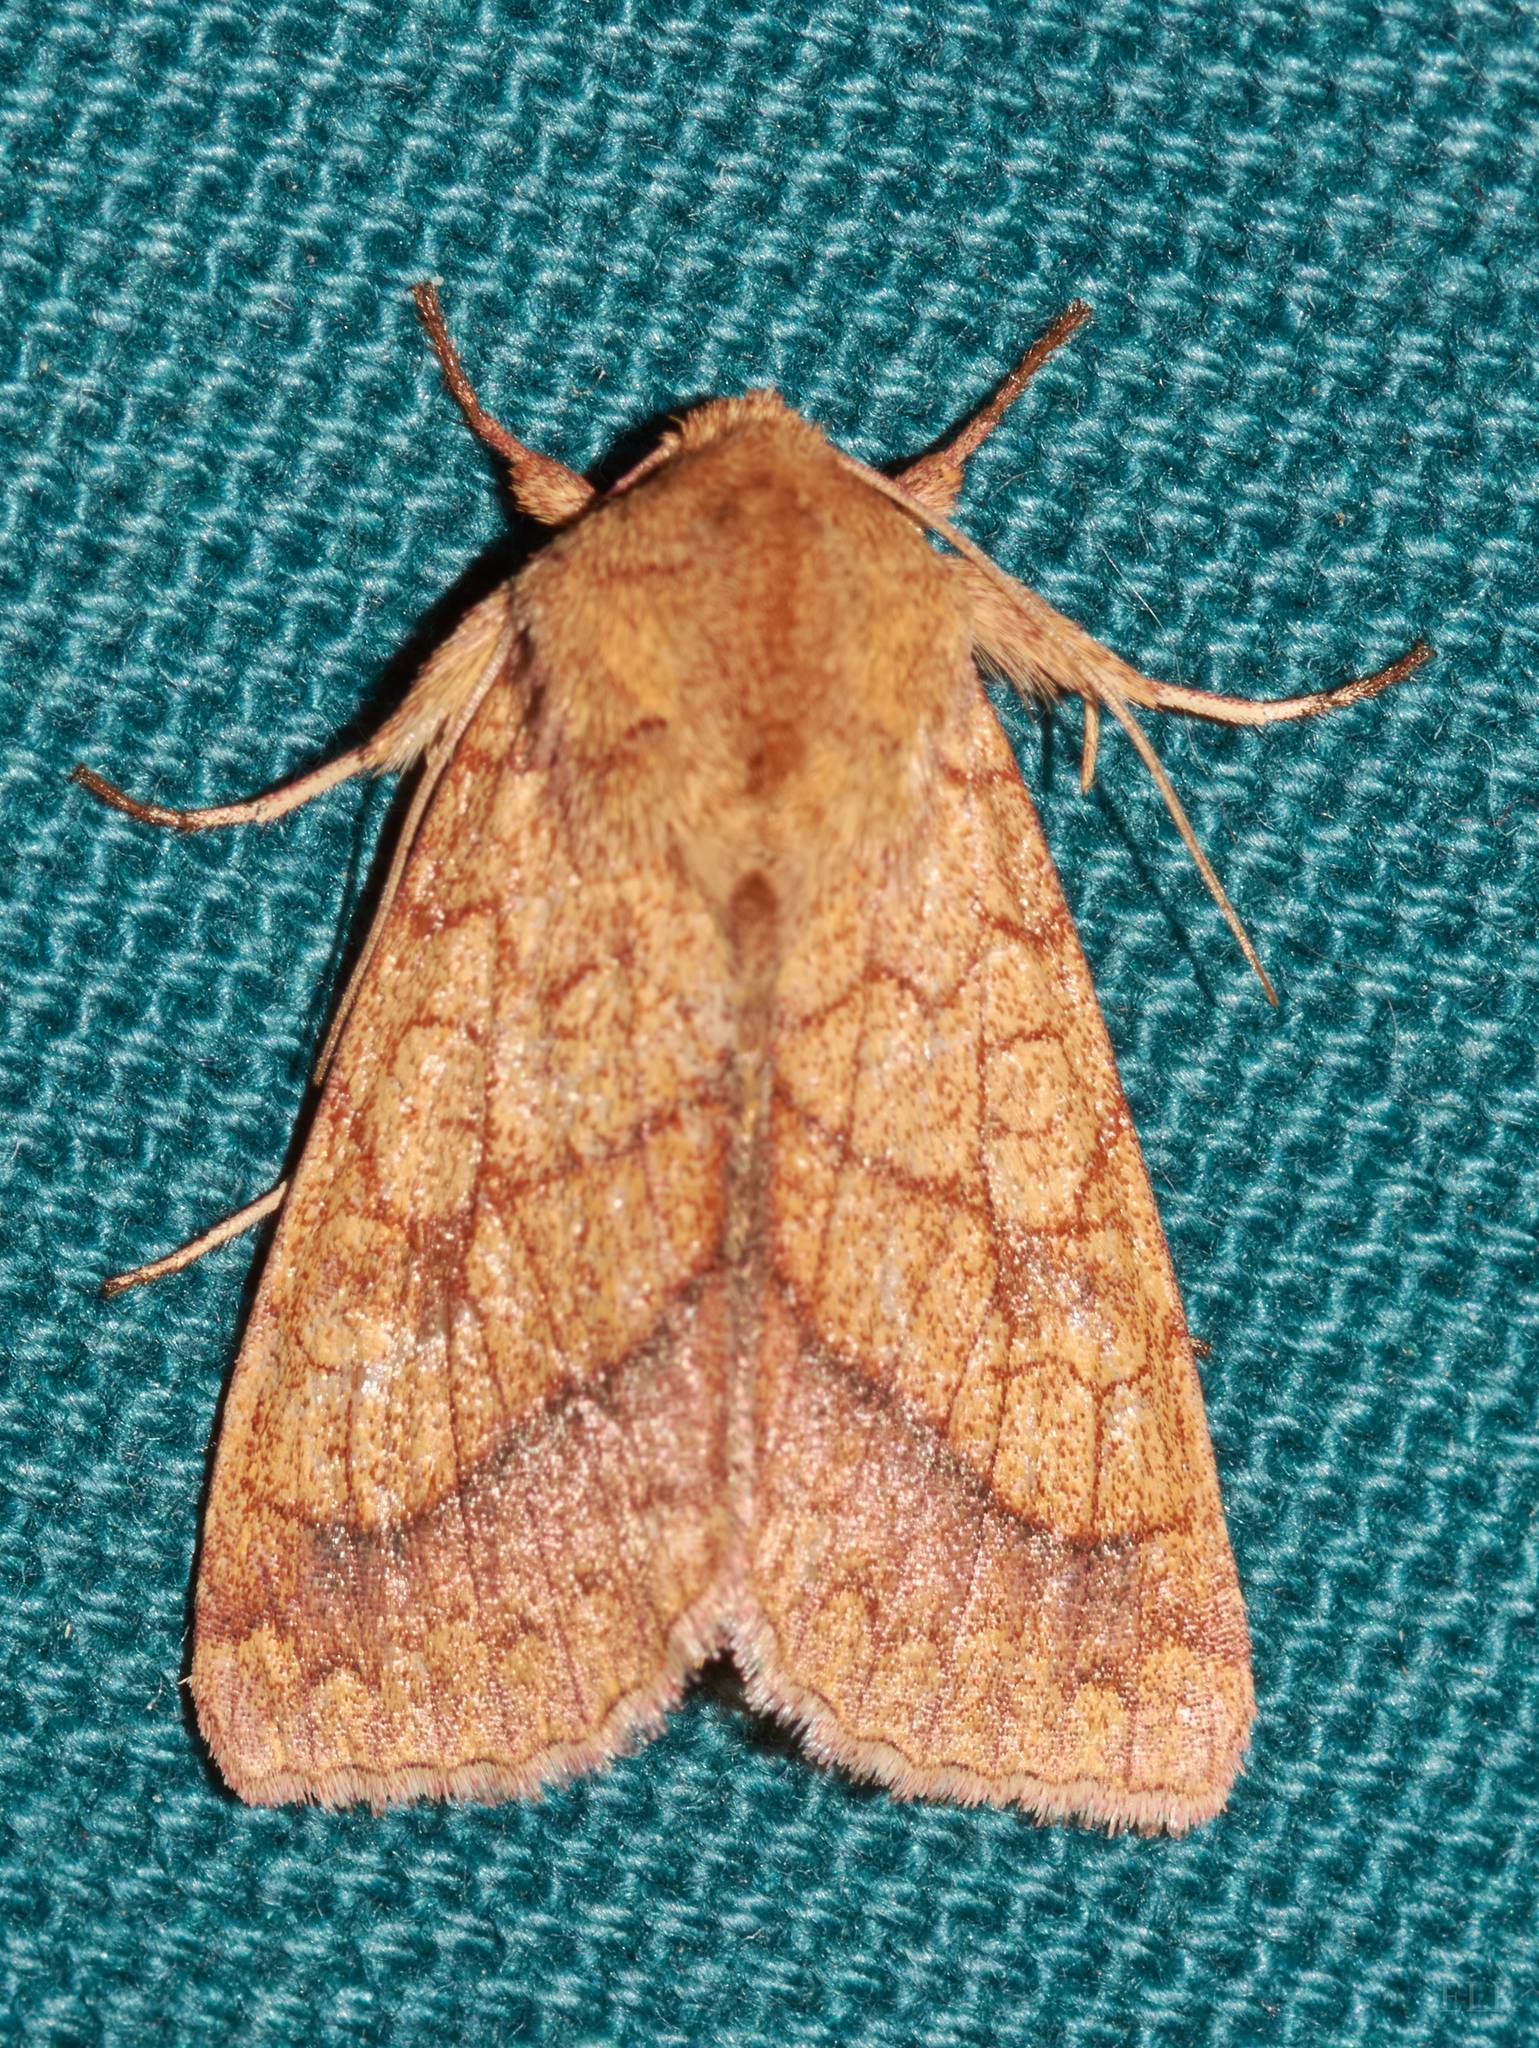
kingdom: Animalia
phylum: Arthropoda
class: Insecta
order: Lepidoptera
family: Noctuidae
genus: Pyrrhia
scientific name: Pyrrhia cilisca
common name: Bordered sallow moth
